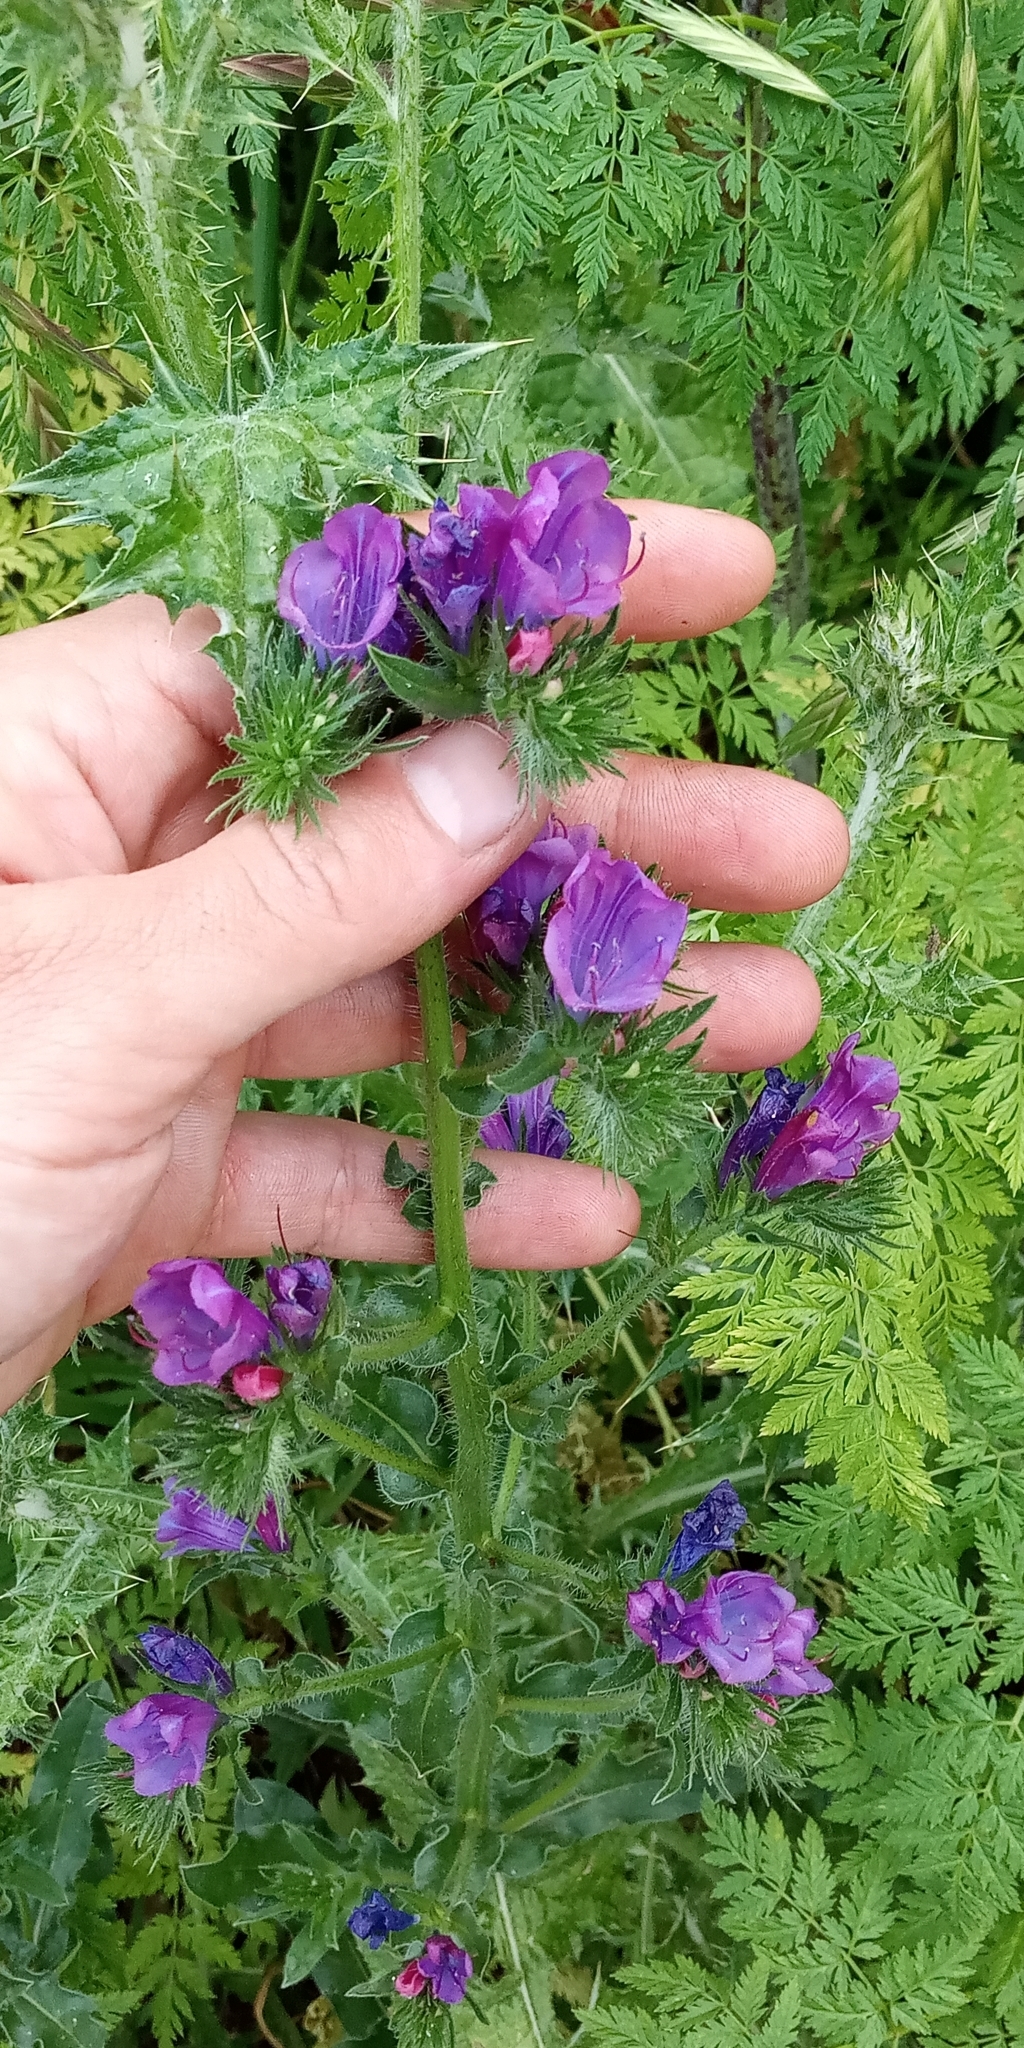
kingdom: Plantae
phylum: Tracheophyta
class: Magnoliopsida
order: Boraginales
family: Boraginaceae
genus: Echium
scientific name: Echium plantagineum
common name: Purple viper's-bugloss
